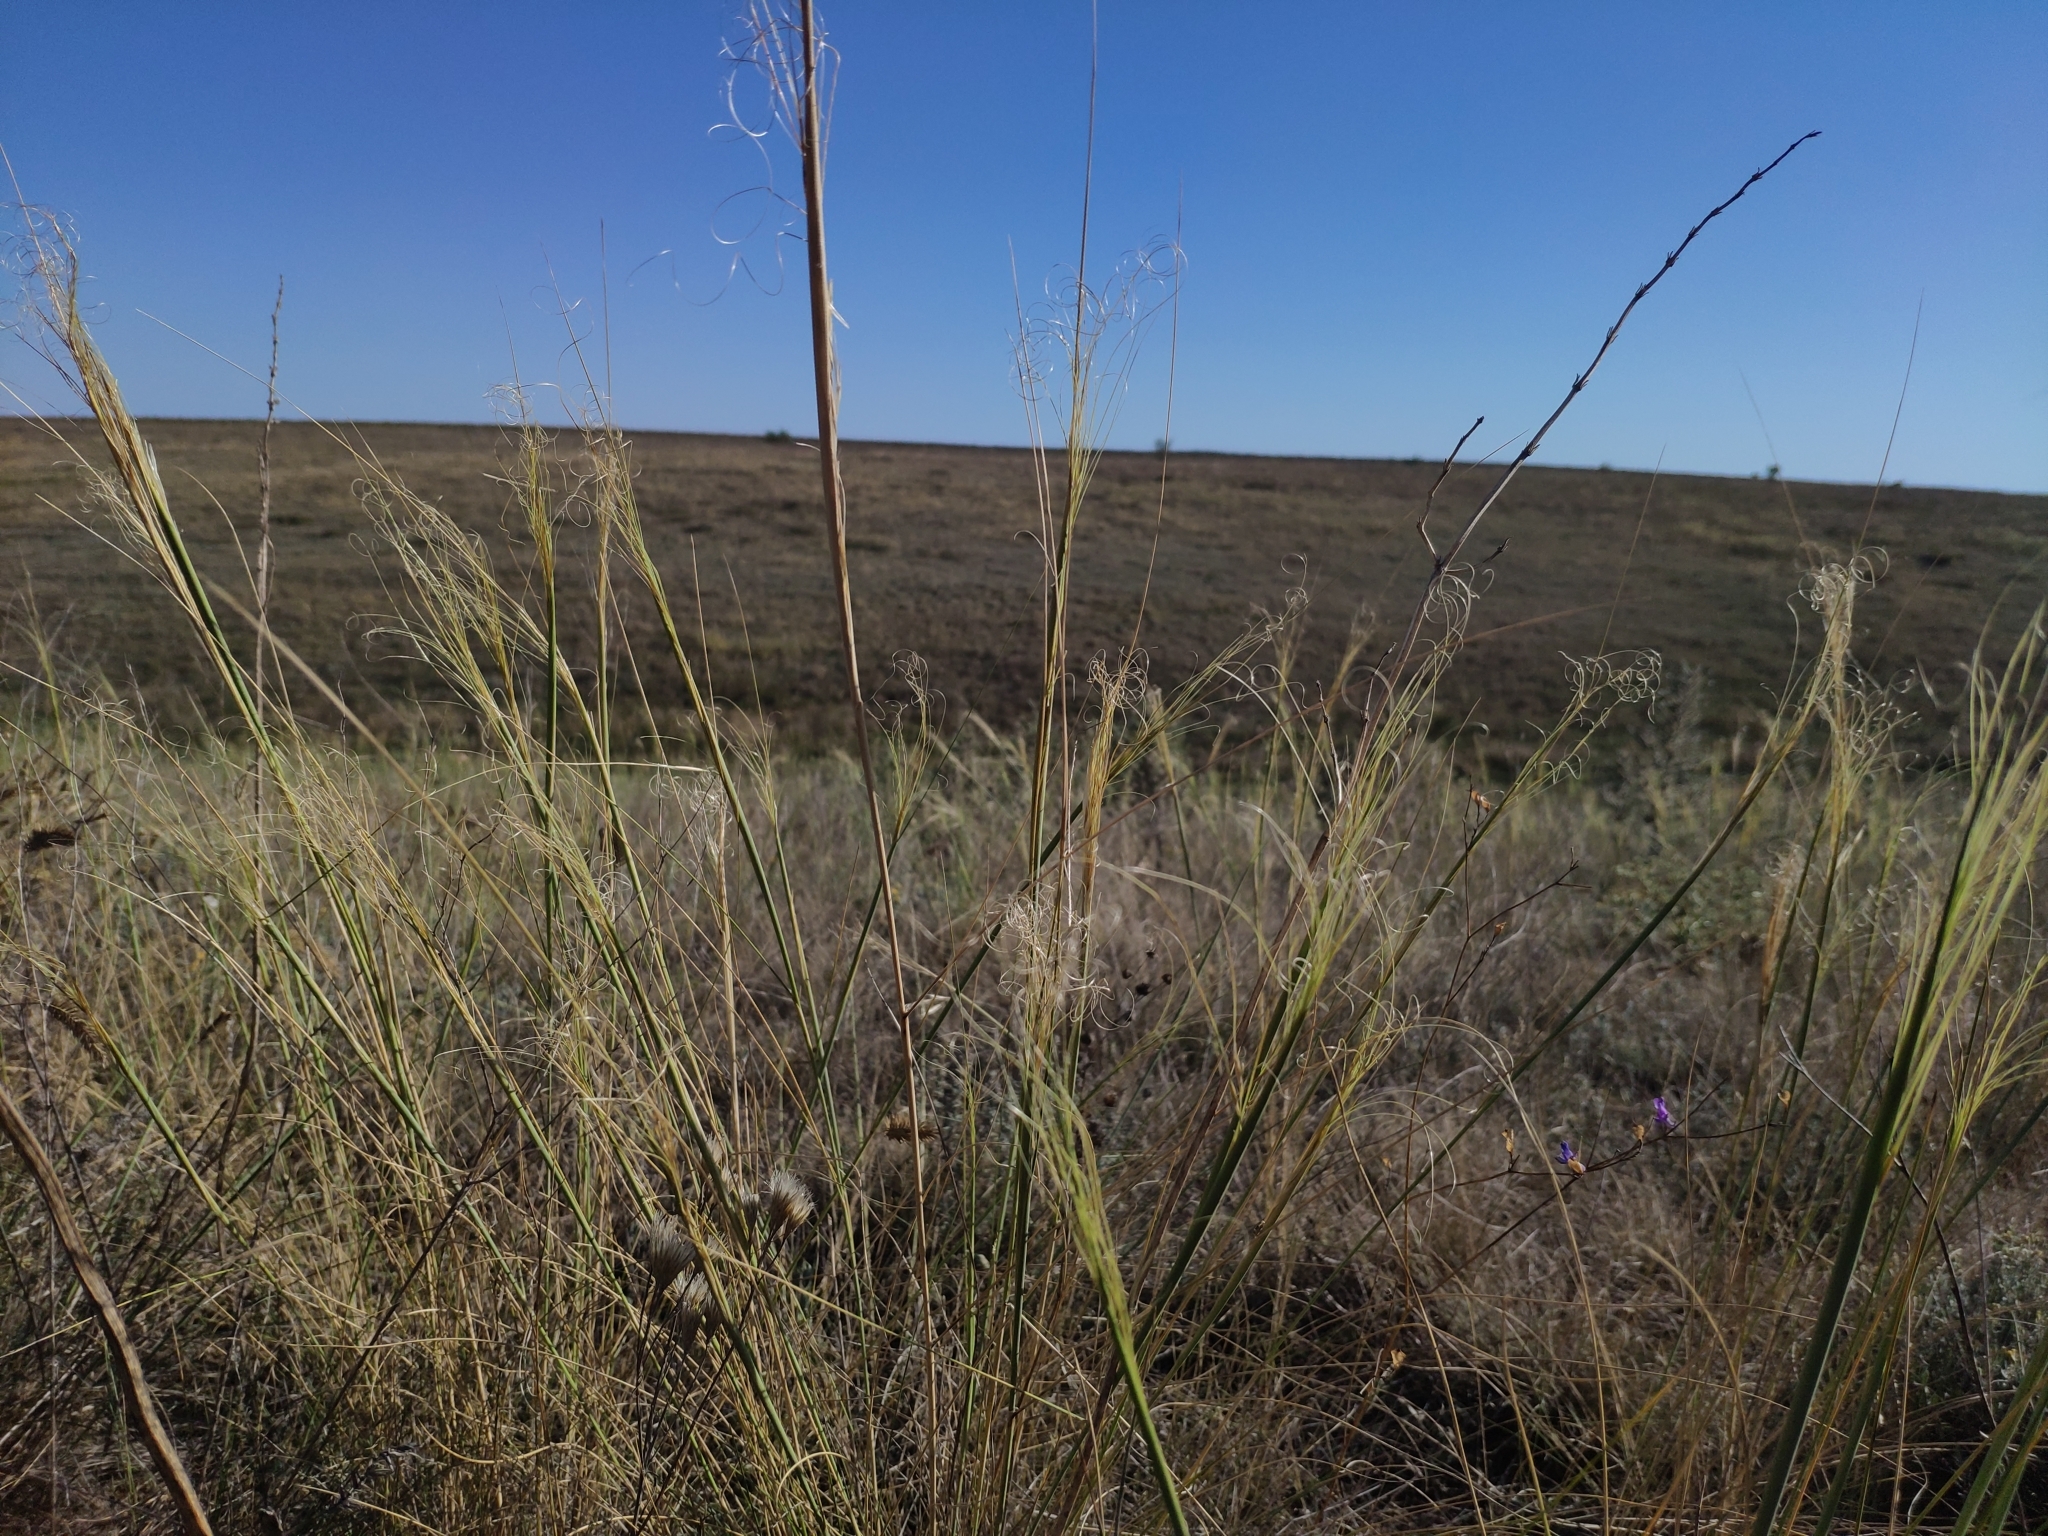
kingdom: Plantae
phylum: Tracheophyta
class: Liliopsida
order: Poales
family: Poaceae
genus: Stipa
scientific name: Stipa capillata
